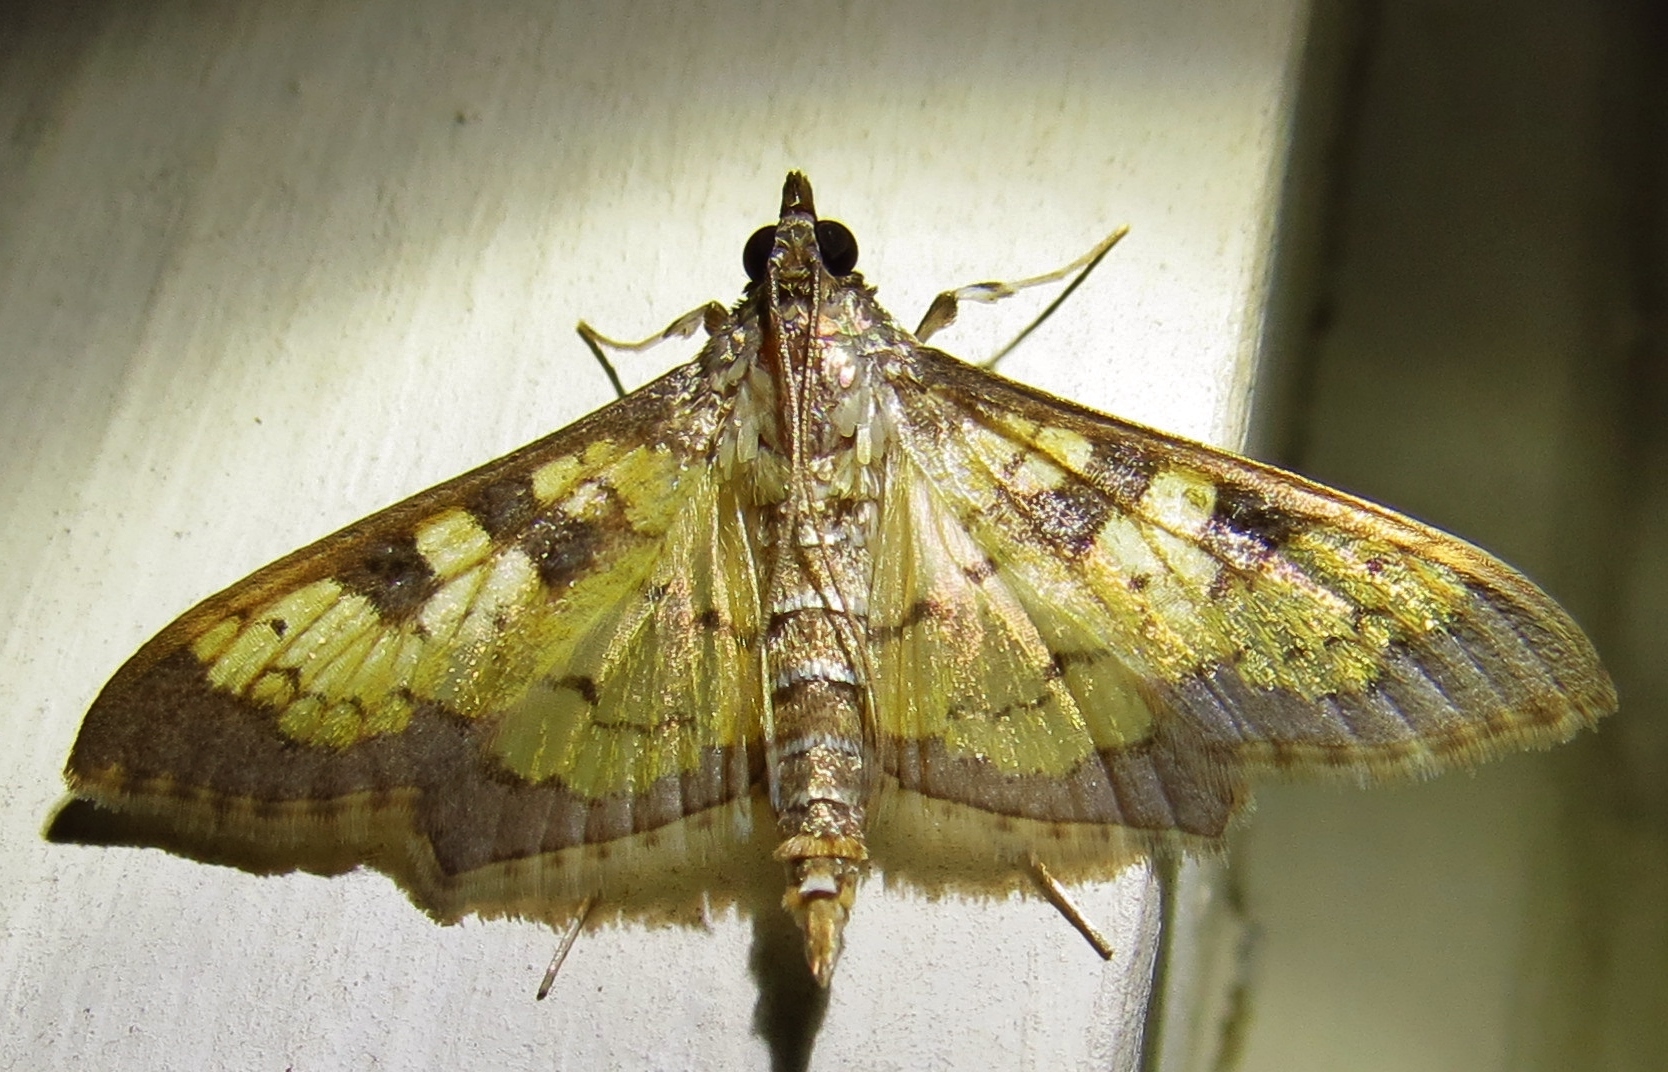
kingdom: Animalia
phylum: Arthropoda
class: Insecta
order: Lepidoptera
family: Crambidae
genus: Cryptographis
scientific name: Cryptographis elealis
